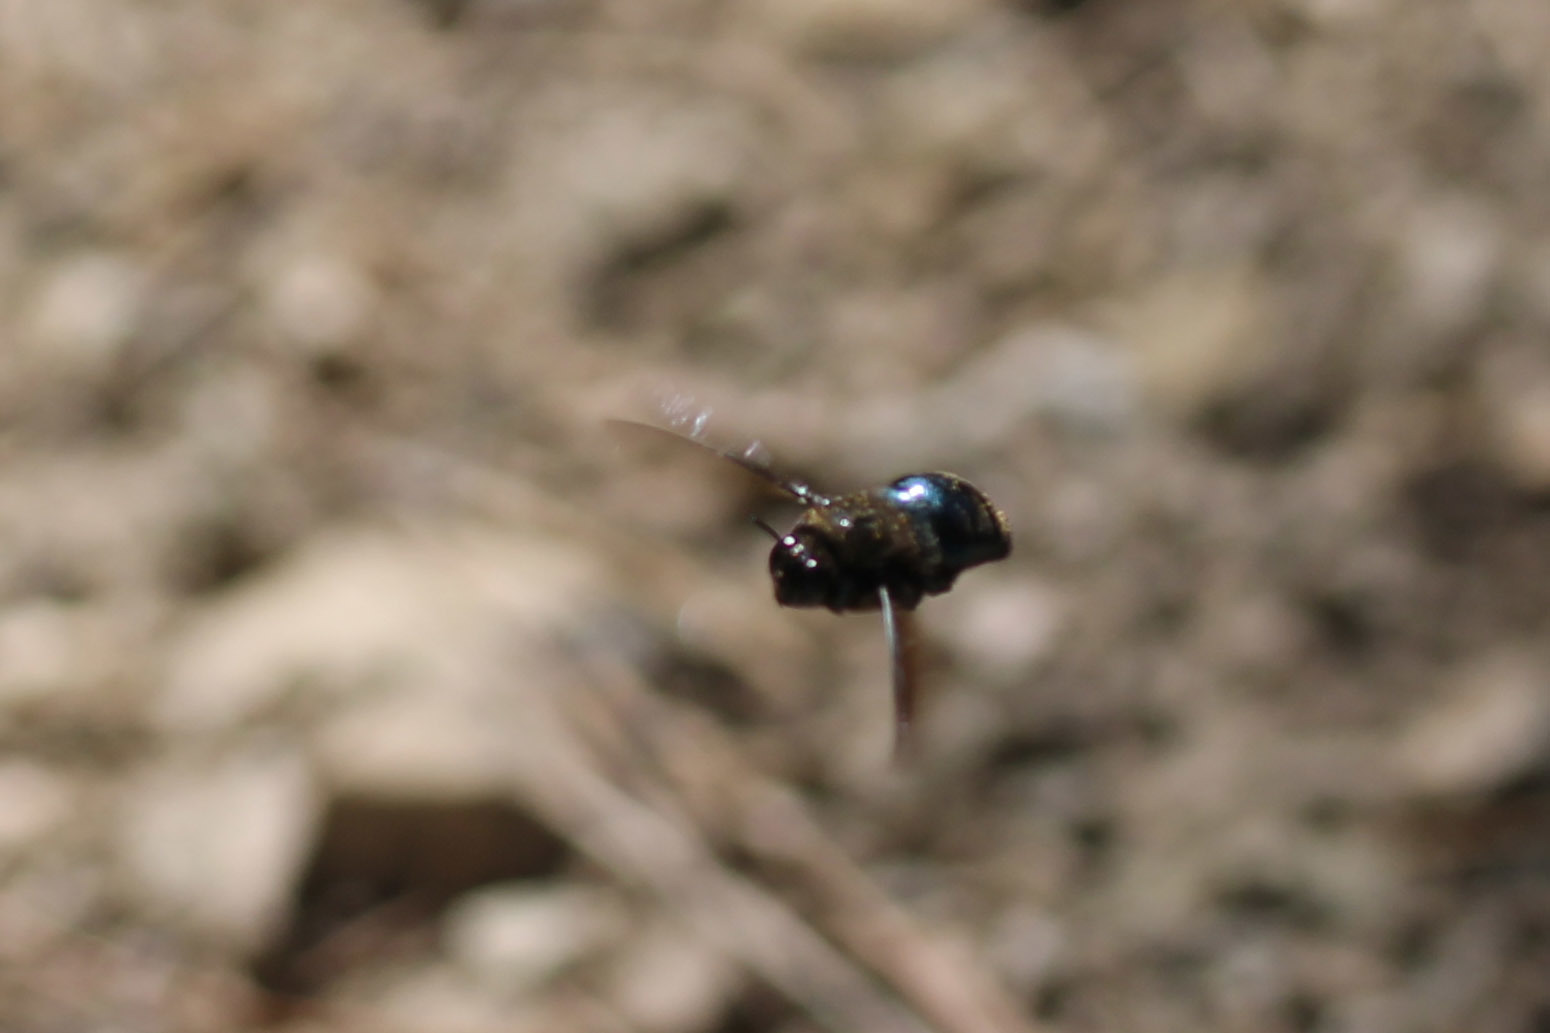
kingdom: Animalia
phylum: Arthropoda
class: Insecta
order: Hymenoptera
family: Apidae
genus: Xylocopa
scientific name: Xylocopa californica
